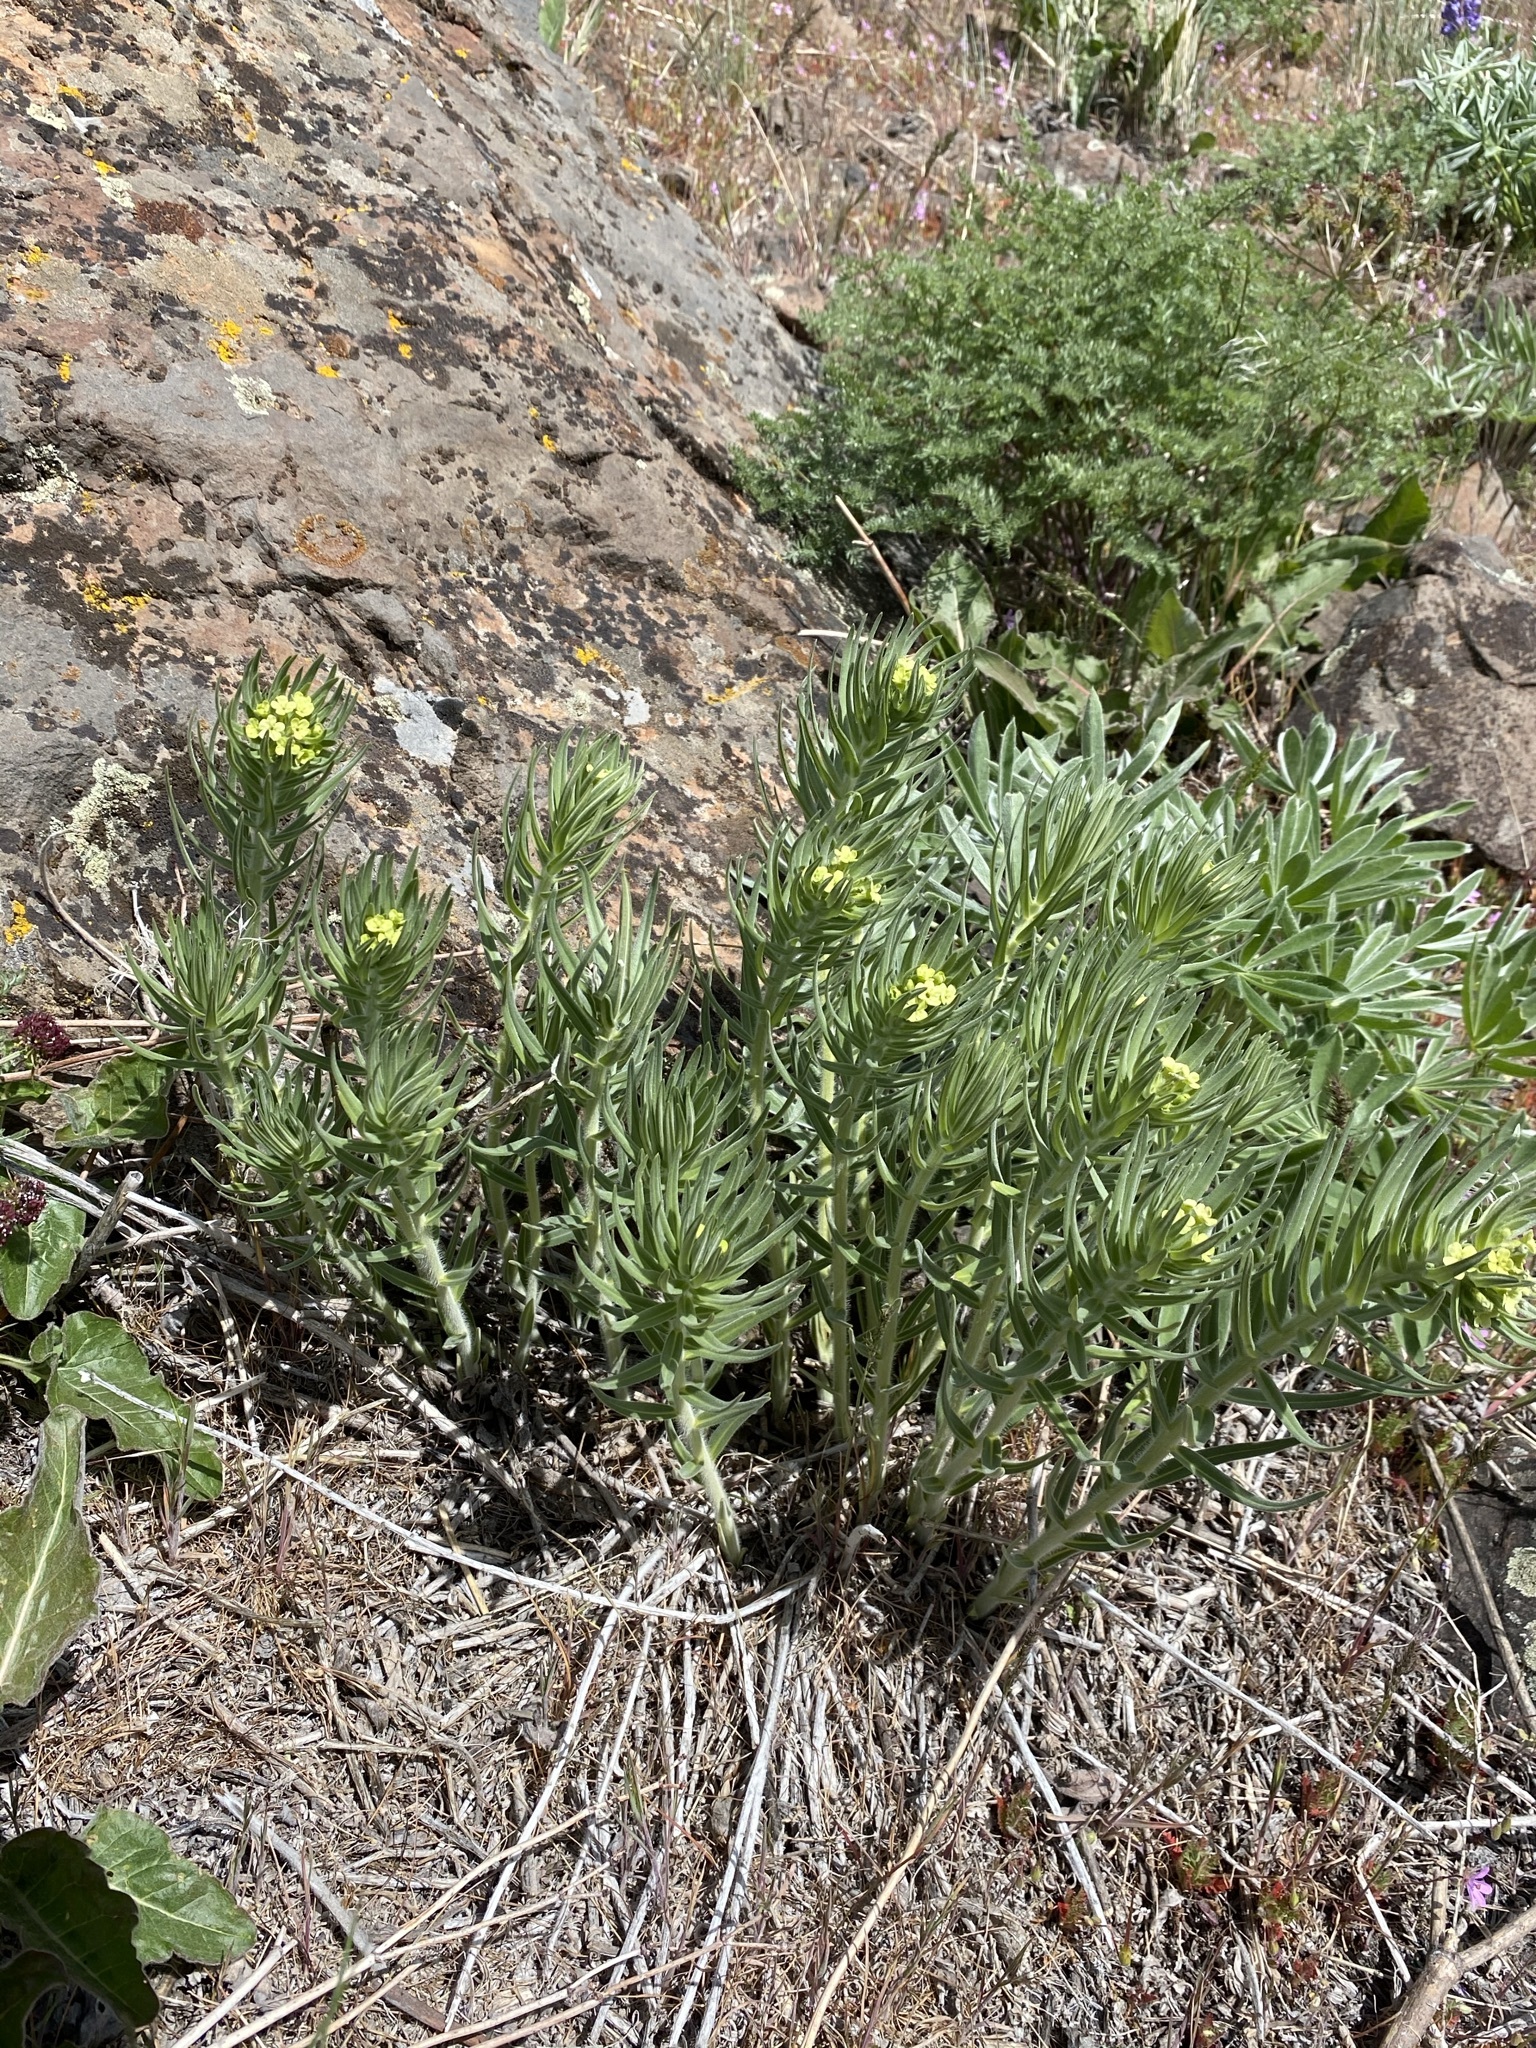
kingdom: Plantae
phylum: Tracheophyta
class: Magnoliopsida
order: Boraginales
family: Boraginaceae
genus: Lithospermum
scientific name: Lithospermum ruderale
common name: Western gromwell
